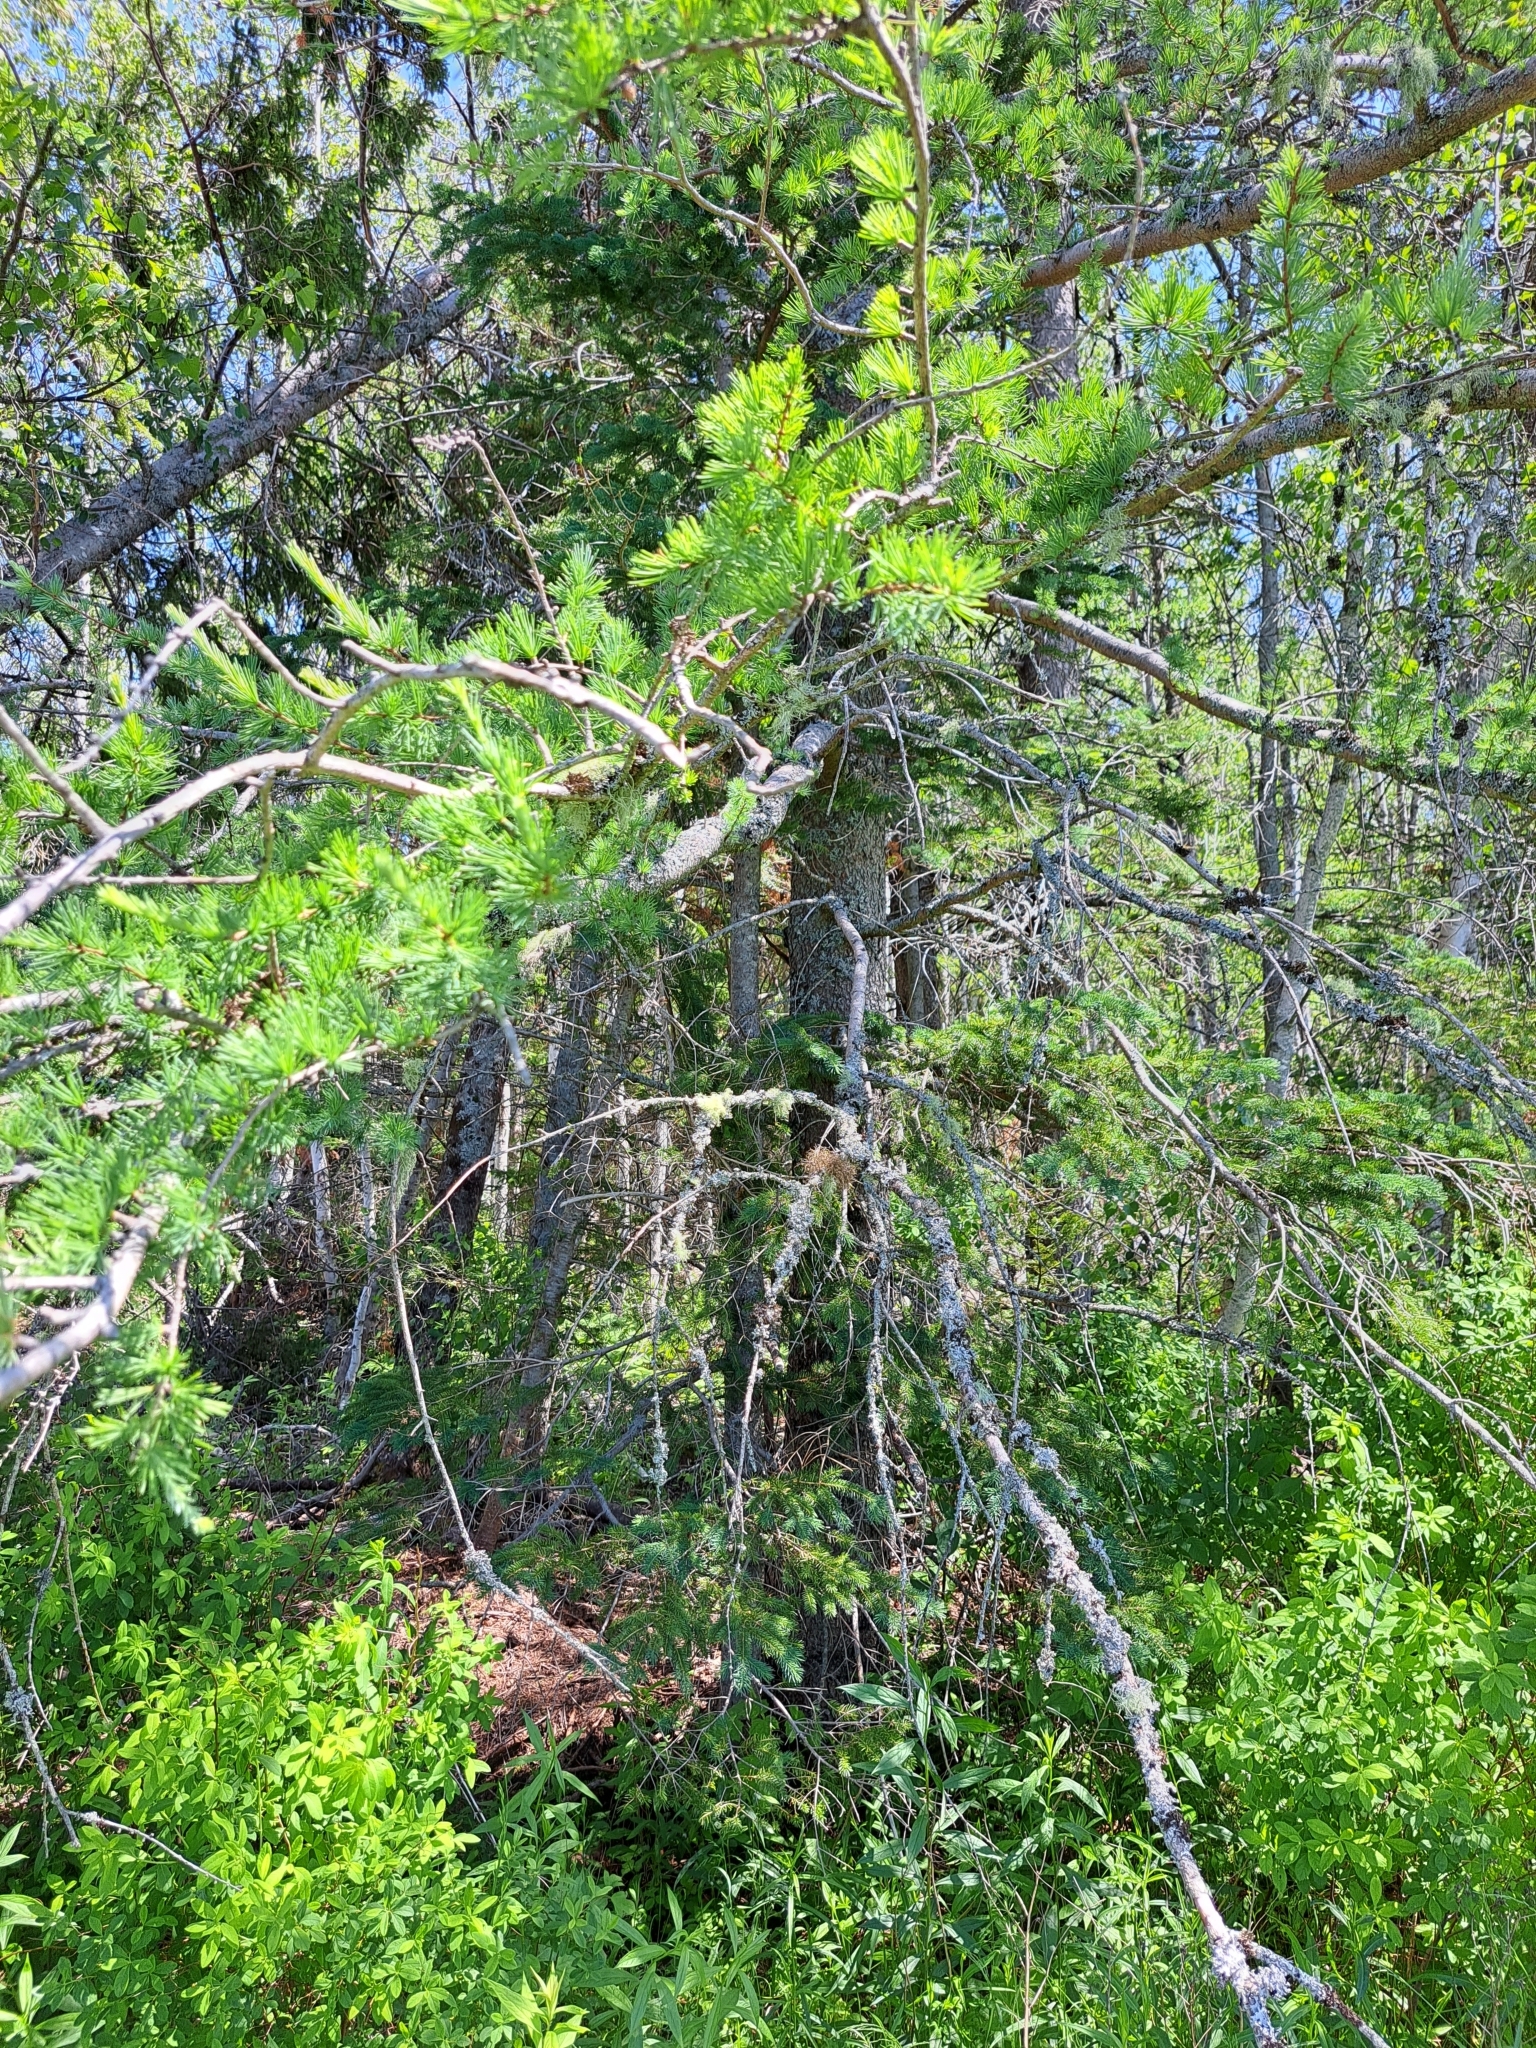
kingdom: Plantae
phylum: Tracheophyta
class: Pinopsida
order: Pinales
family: Pinaceae
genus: Larix
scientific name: Larix laricina
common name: American larch
